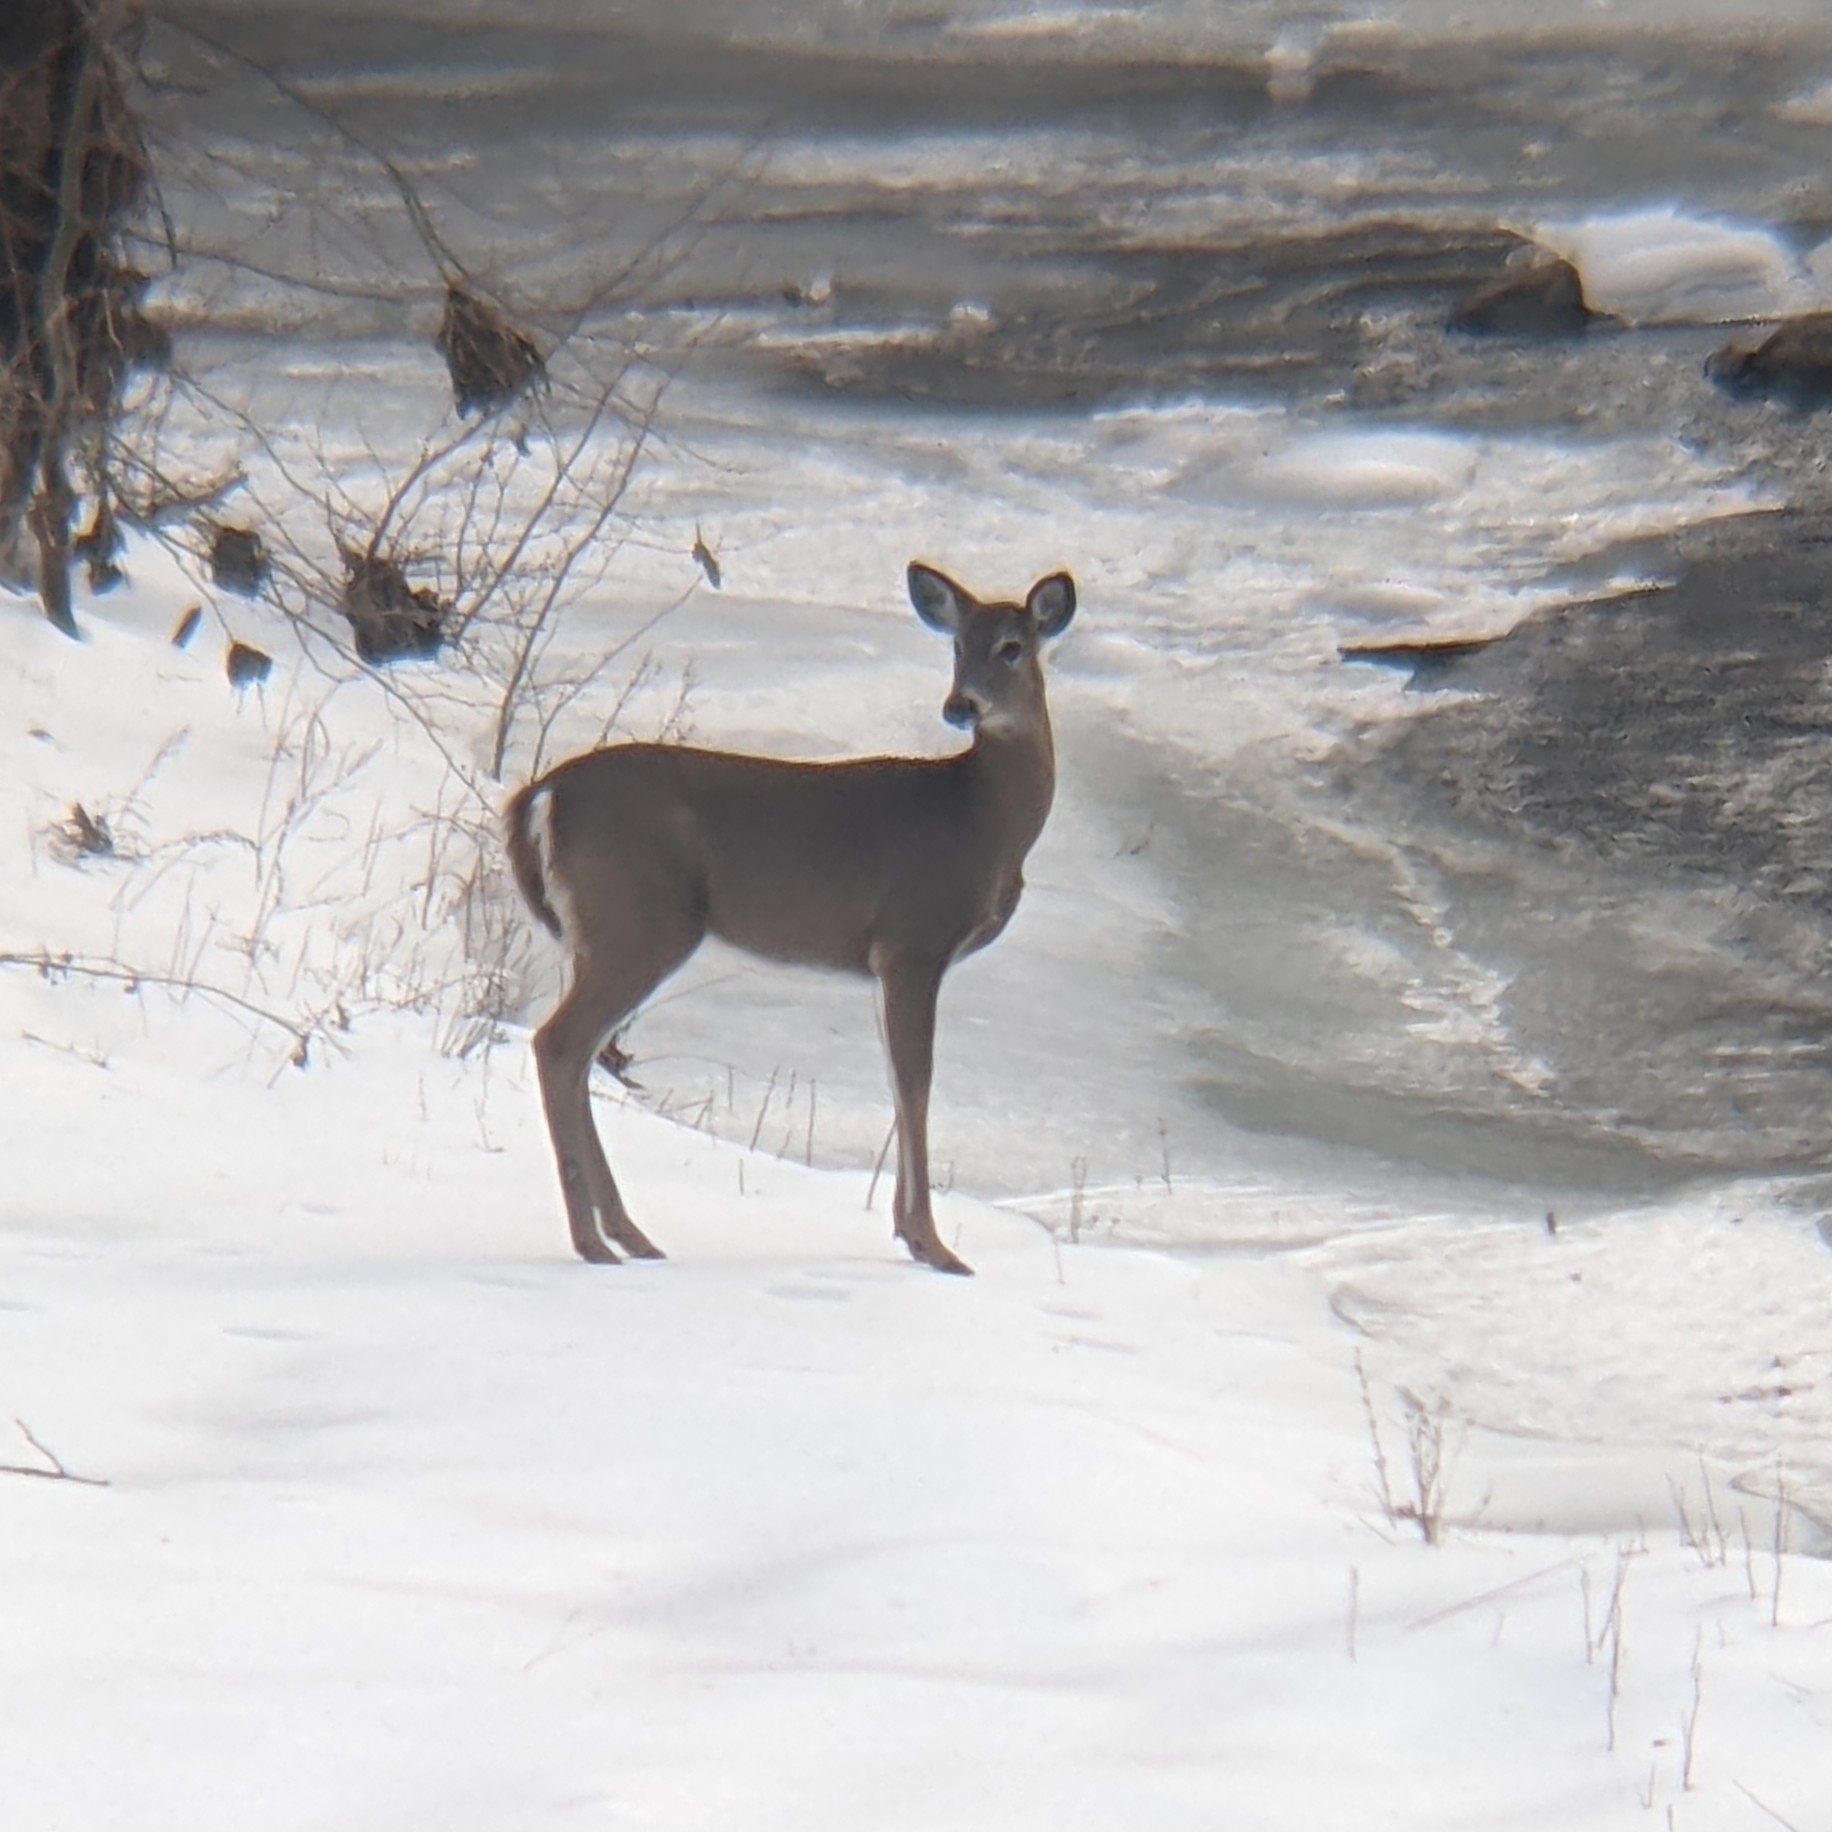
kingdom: Animalia
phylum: Chordata
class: Mammalia
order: Artiodactyla
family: Cervidae
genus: Odocoileus
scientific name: Odocoileus virginianus
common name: White-tailed deer
